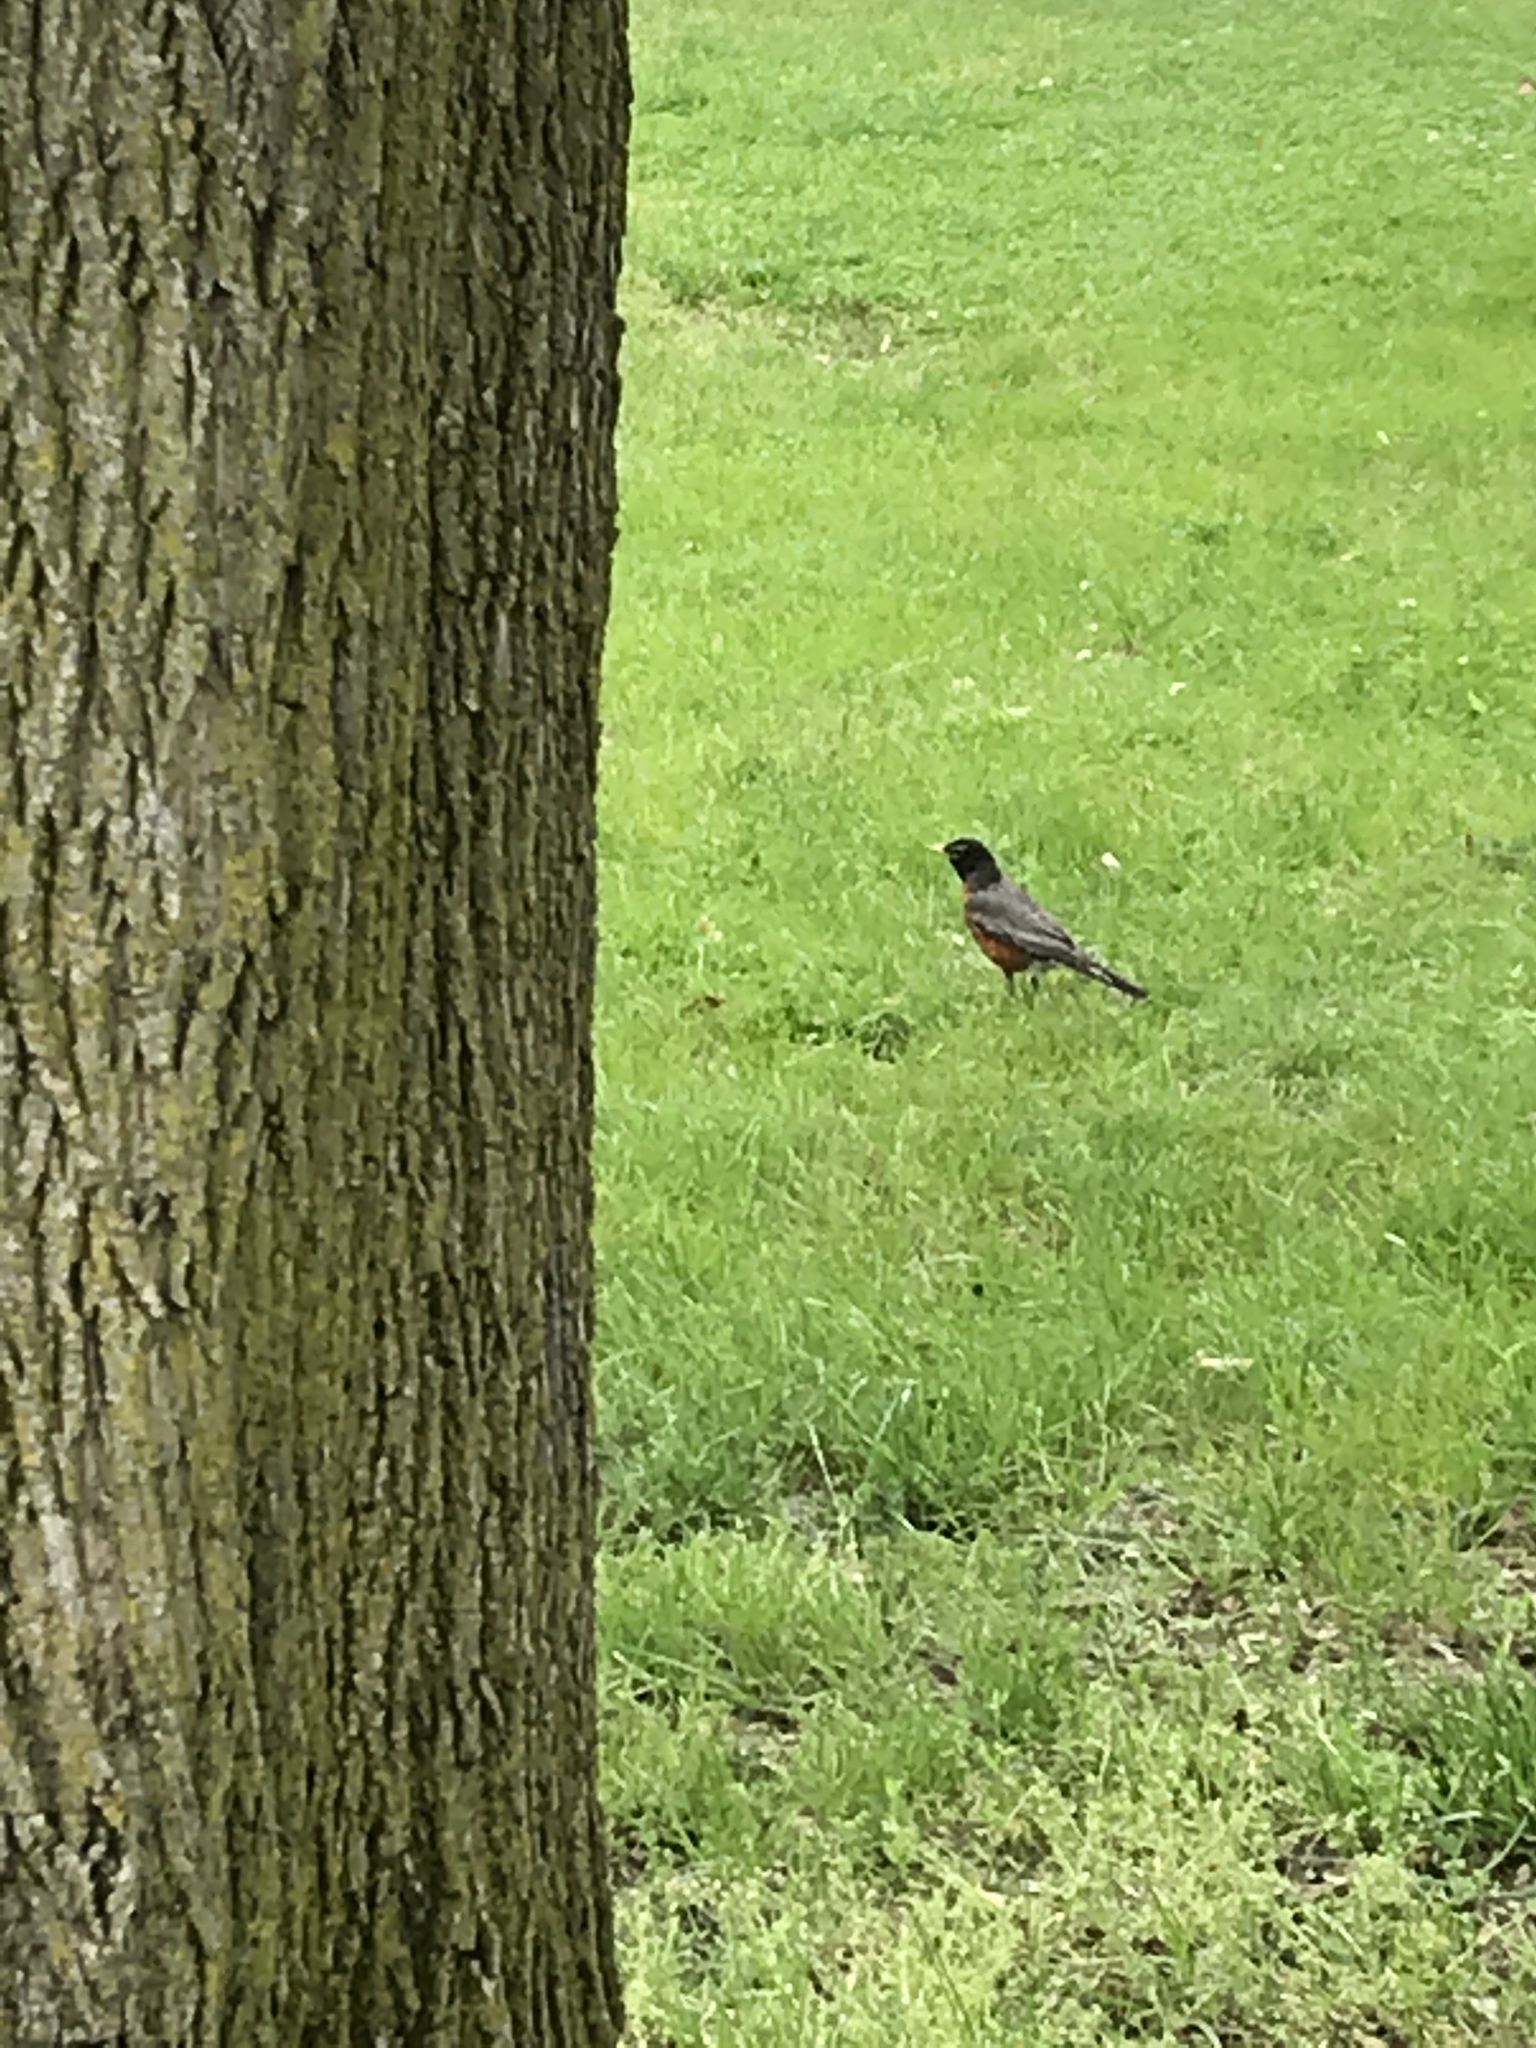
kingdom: Animalia
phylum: Chordata
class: Aves
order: Passeriformes
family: Turdidae
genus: Turdus
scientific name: Turdus migratorius
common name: American robin
